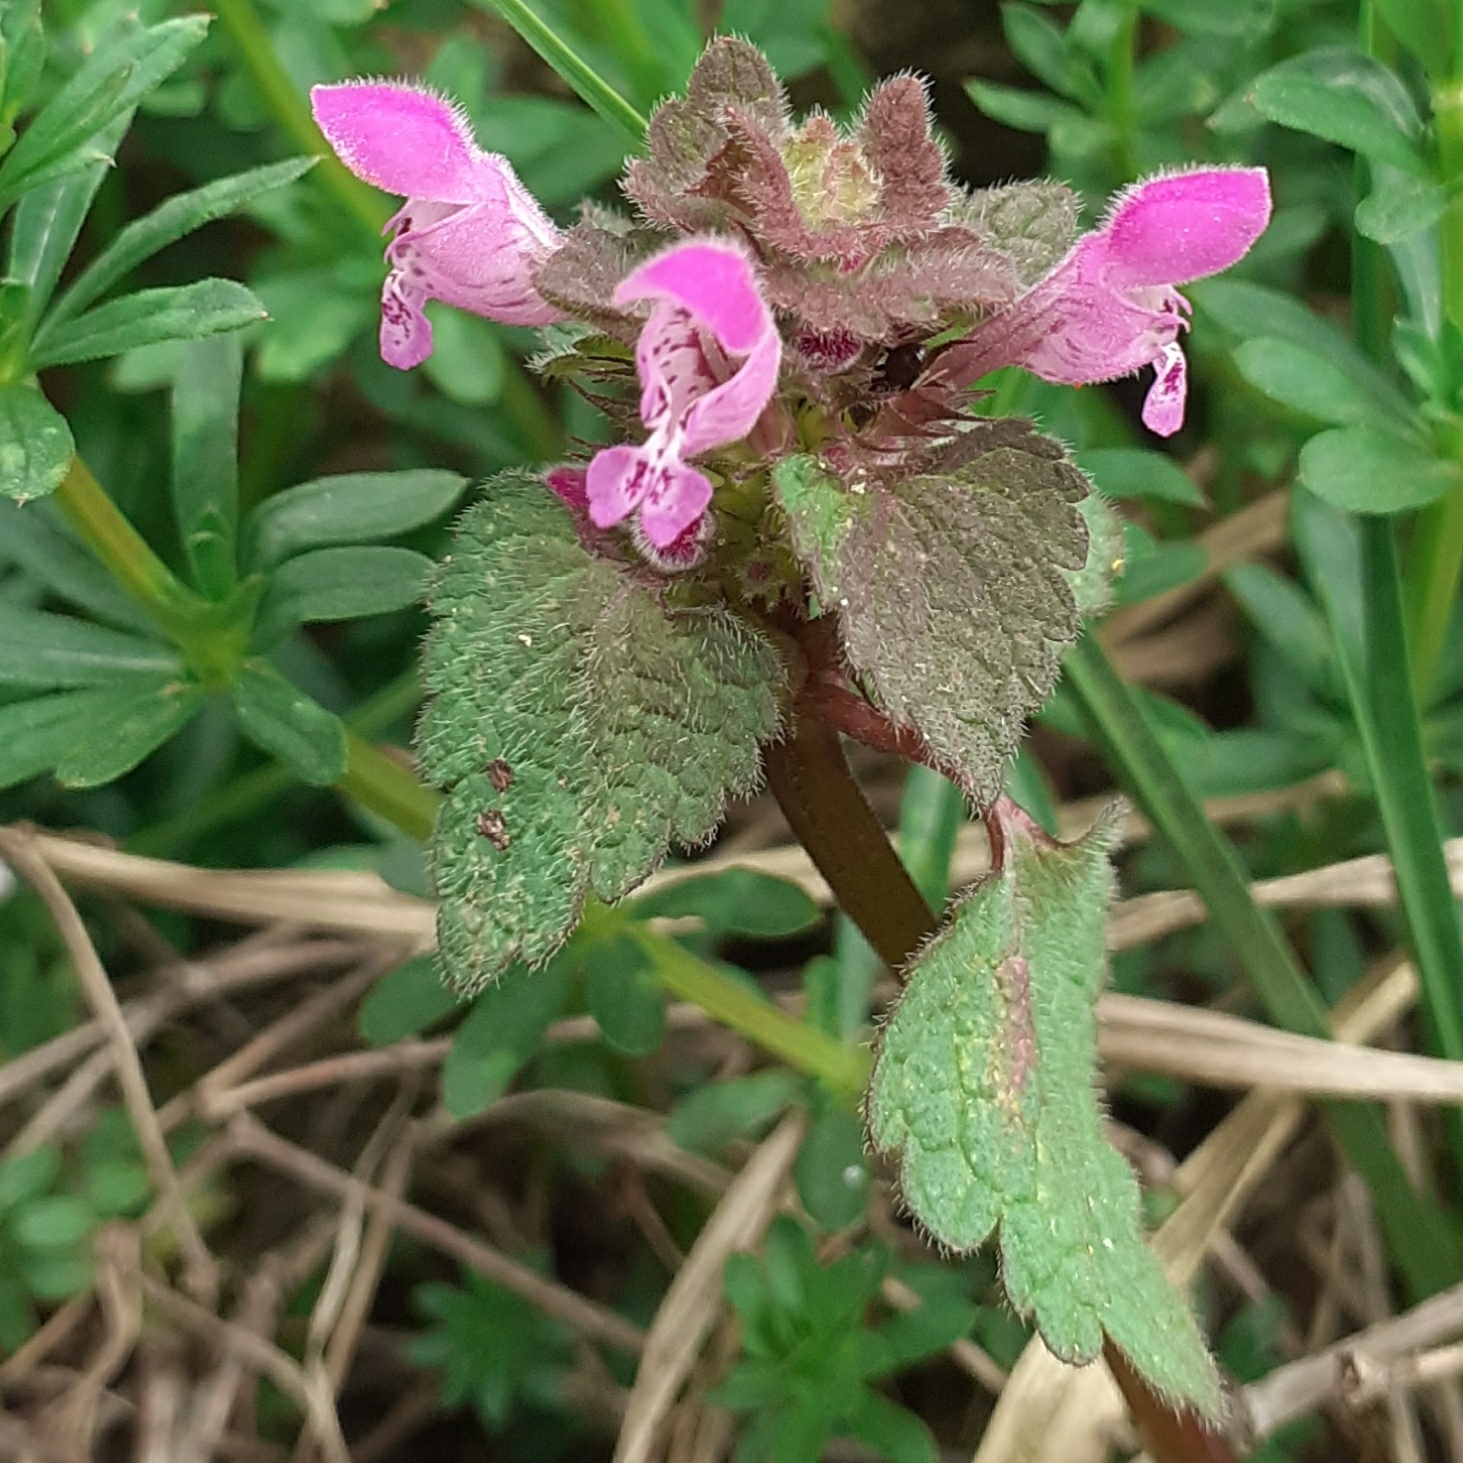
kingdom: Plantae
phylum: Tracheophyta
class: Magnoliopsida
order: Lamiales
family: Lamiaceae
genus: Lamium
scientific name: Lamium purpureum
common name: Red dead-nettle
